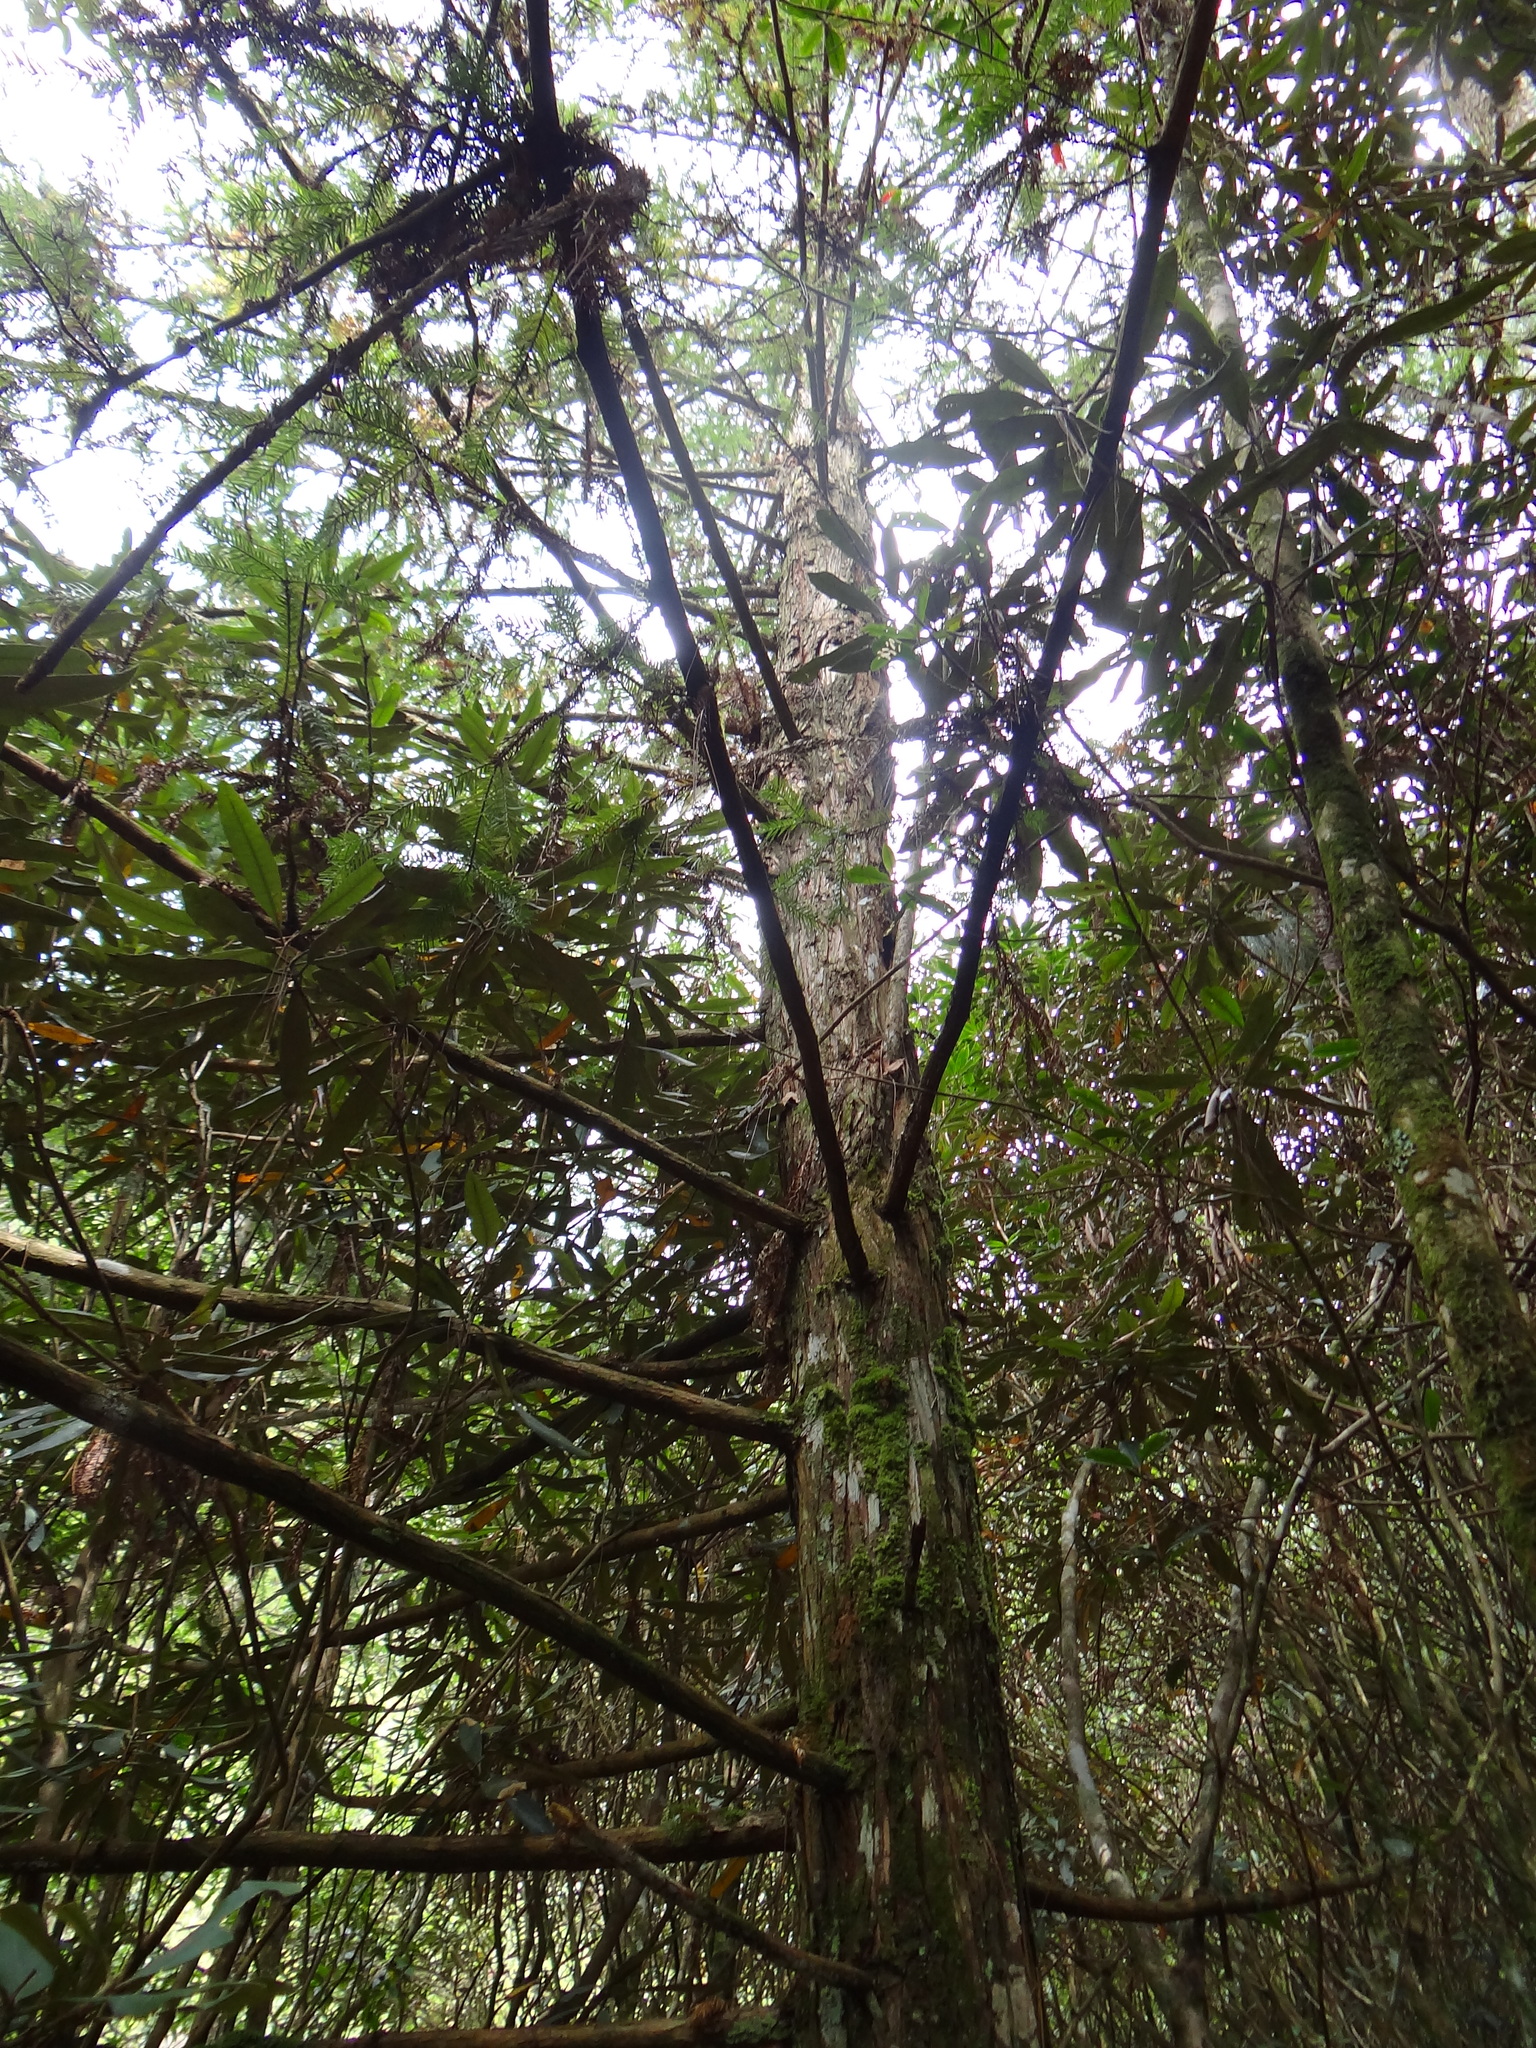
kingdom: Plantae
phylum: Tracheophyta
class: Pinopsida
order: Pinales
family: Cupressaceae
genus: Cunninghamia
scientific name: Cunninghamia konishii
